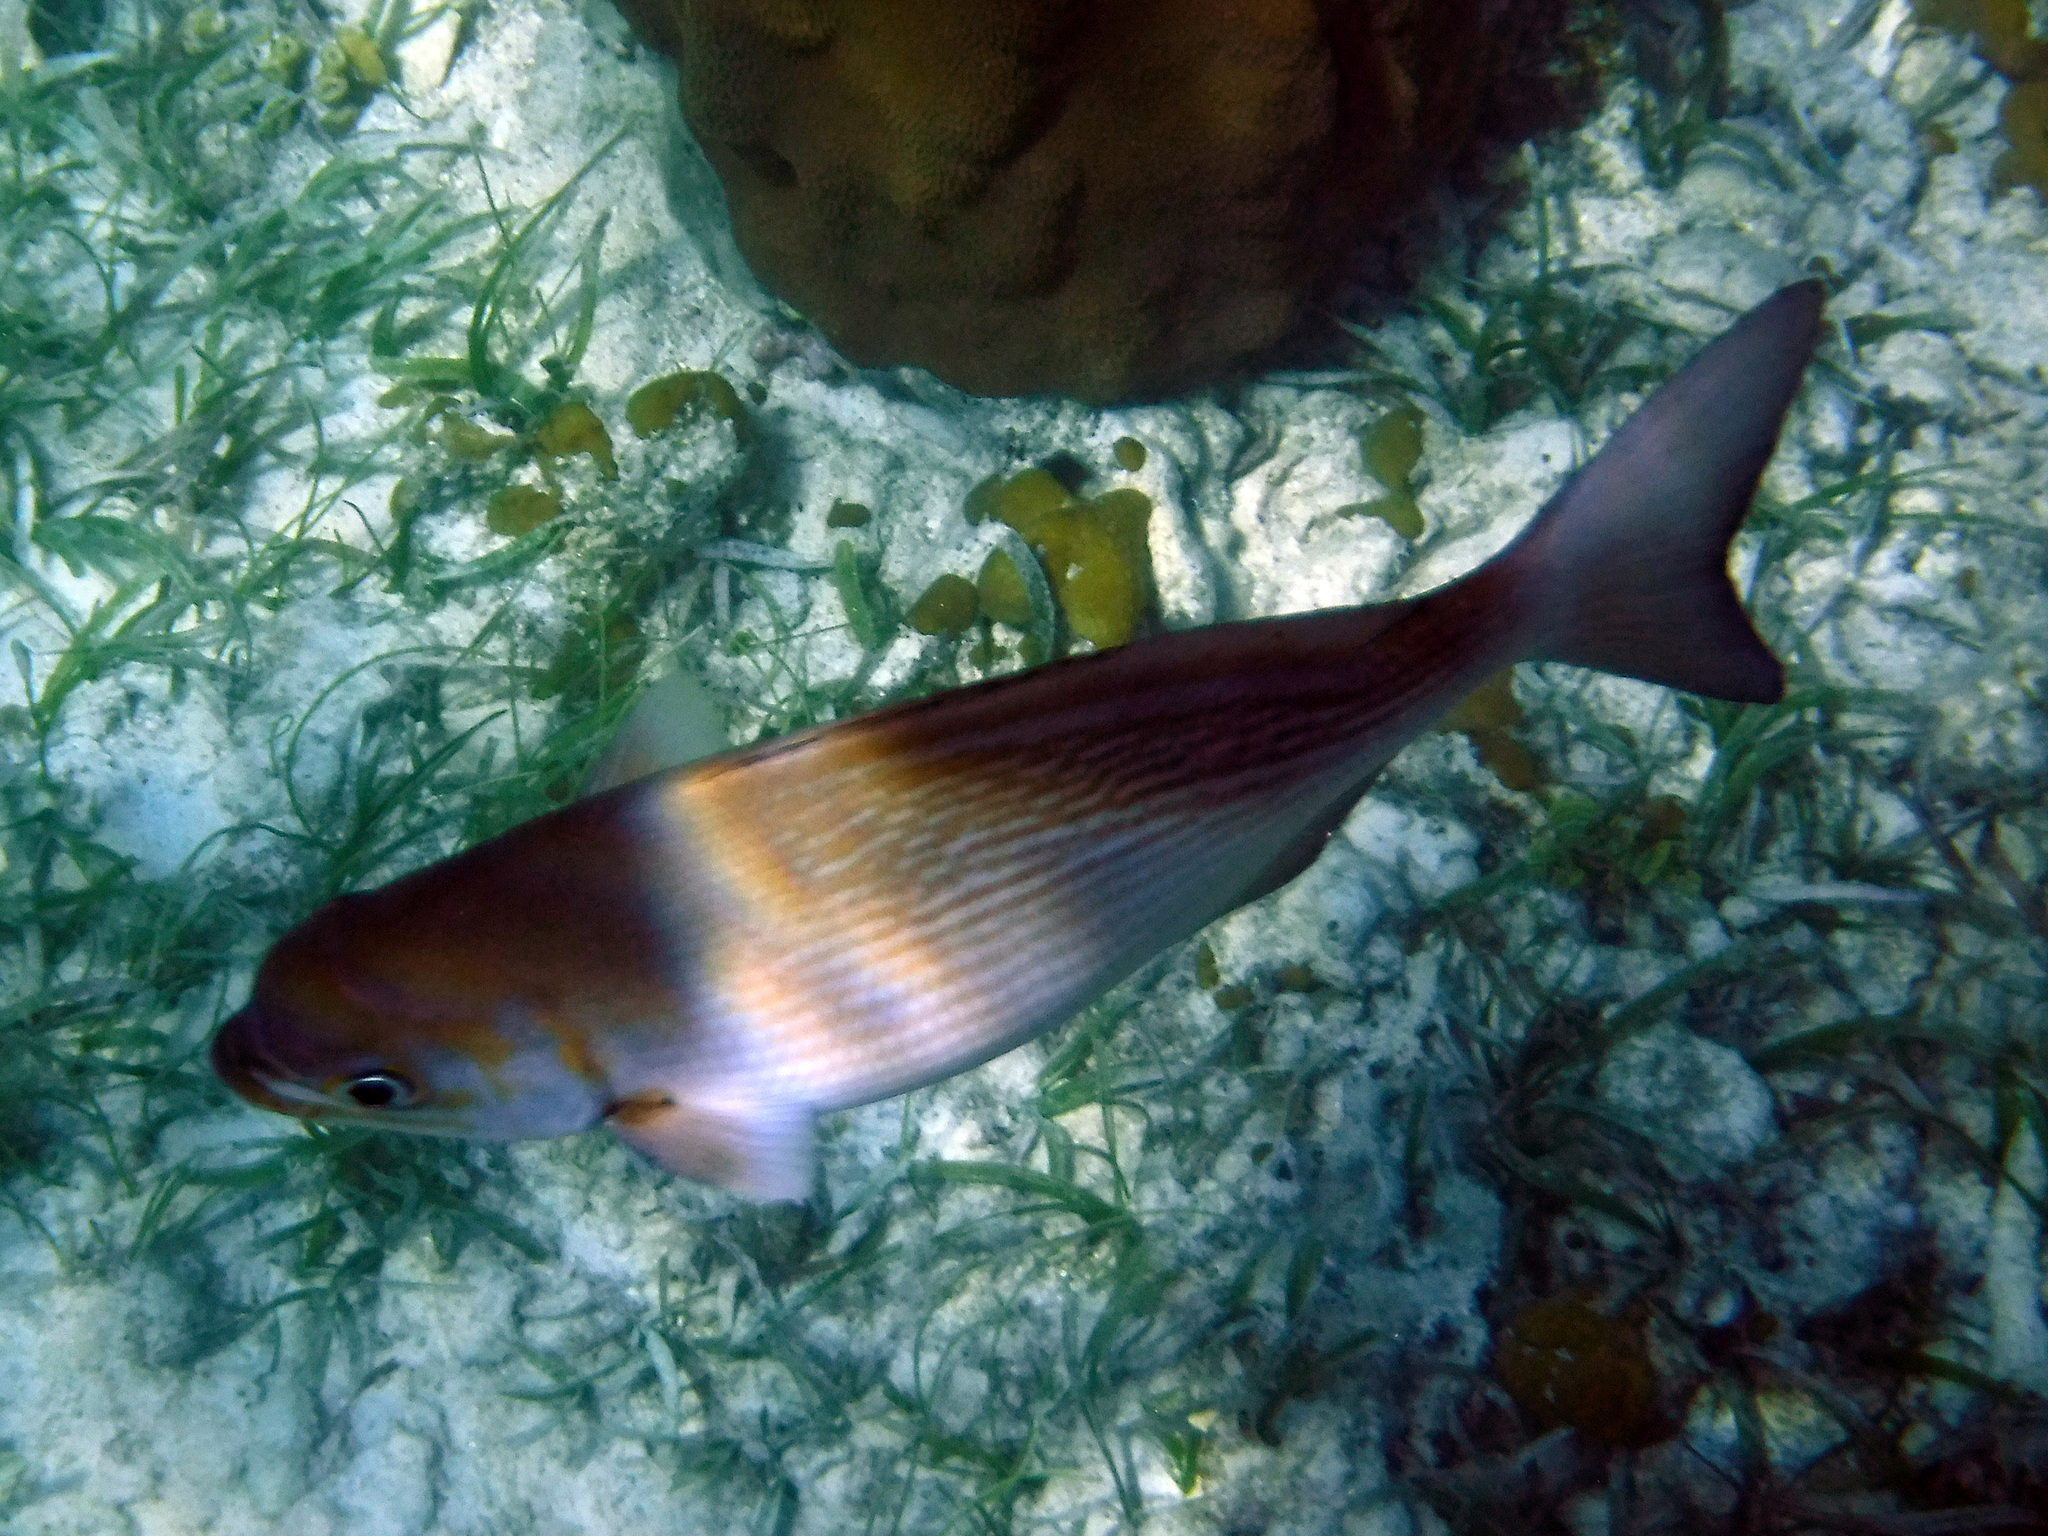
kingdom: Animalia
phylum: Chordata
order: Perciformes
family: Kyphosidae
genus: Kyphosus
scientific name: Kyphosus vaigiensis
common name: Brassy chub
